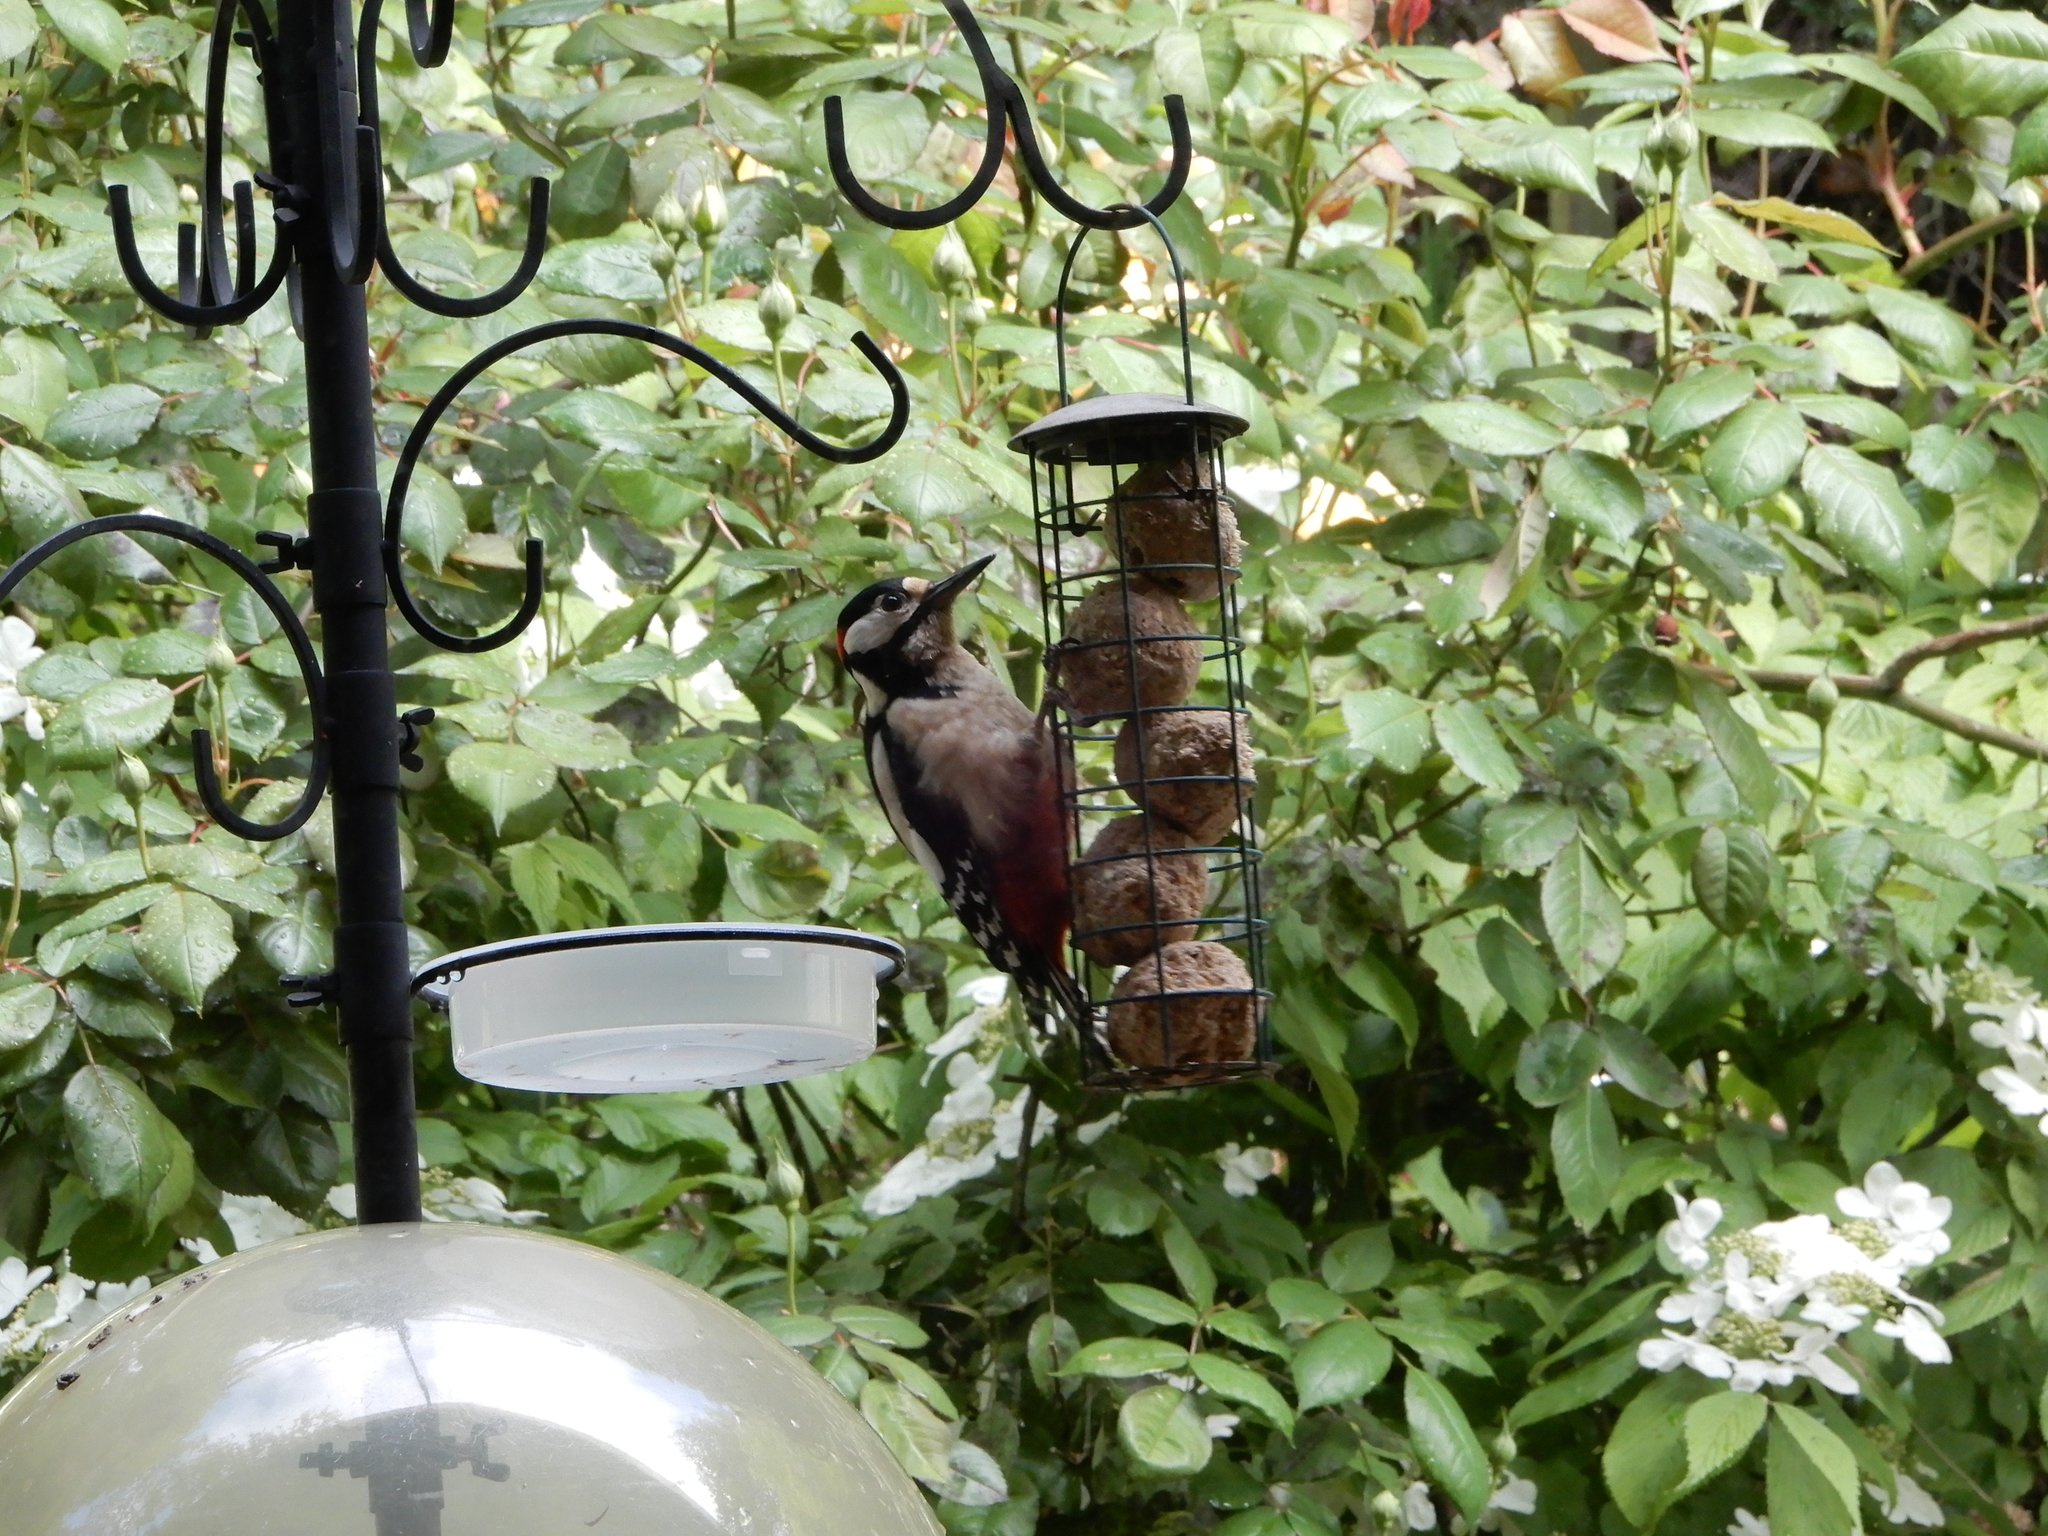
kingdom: Animalia
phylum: Chordata
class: Aves
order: Piciformes
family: Picidae
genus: Dendrocopos
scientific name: Dendrocopos major
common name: Great spotted woodpecker
